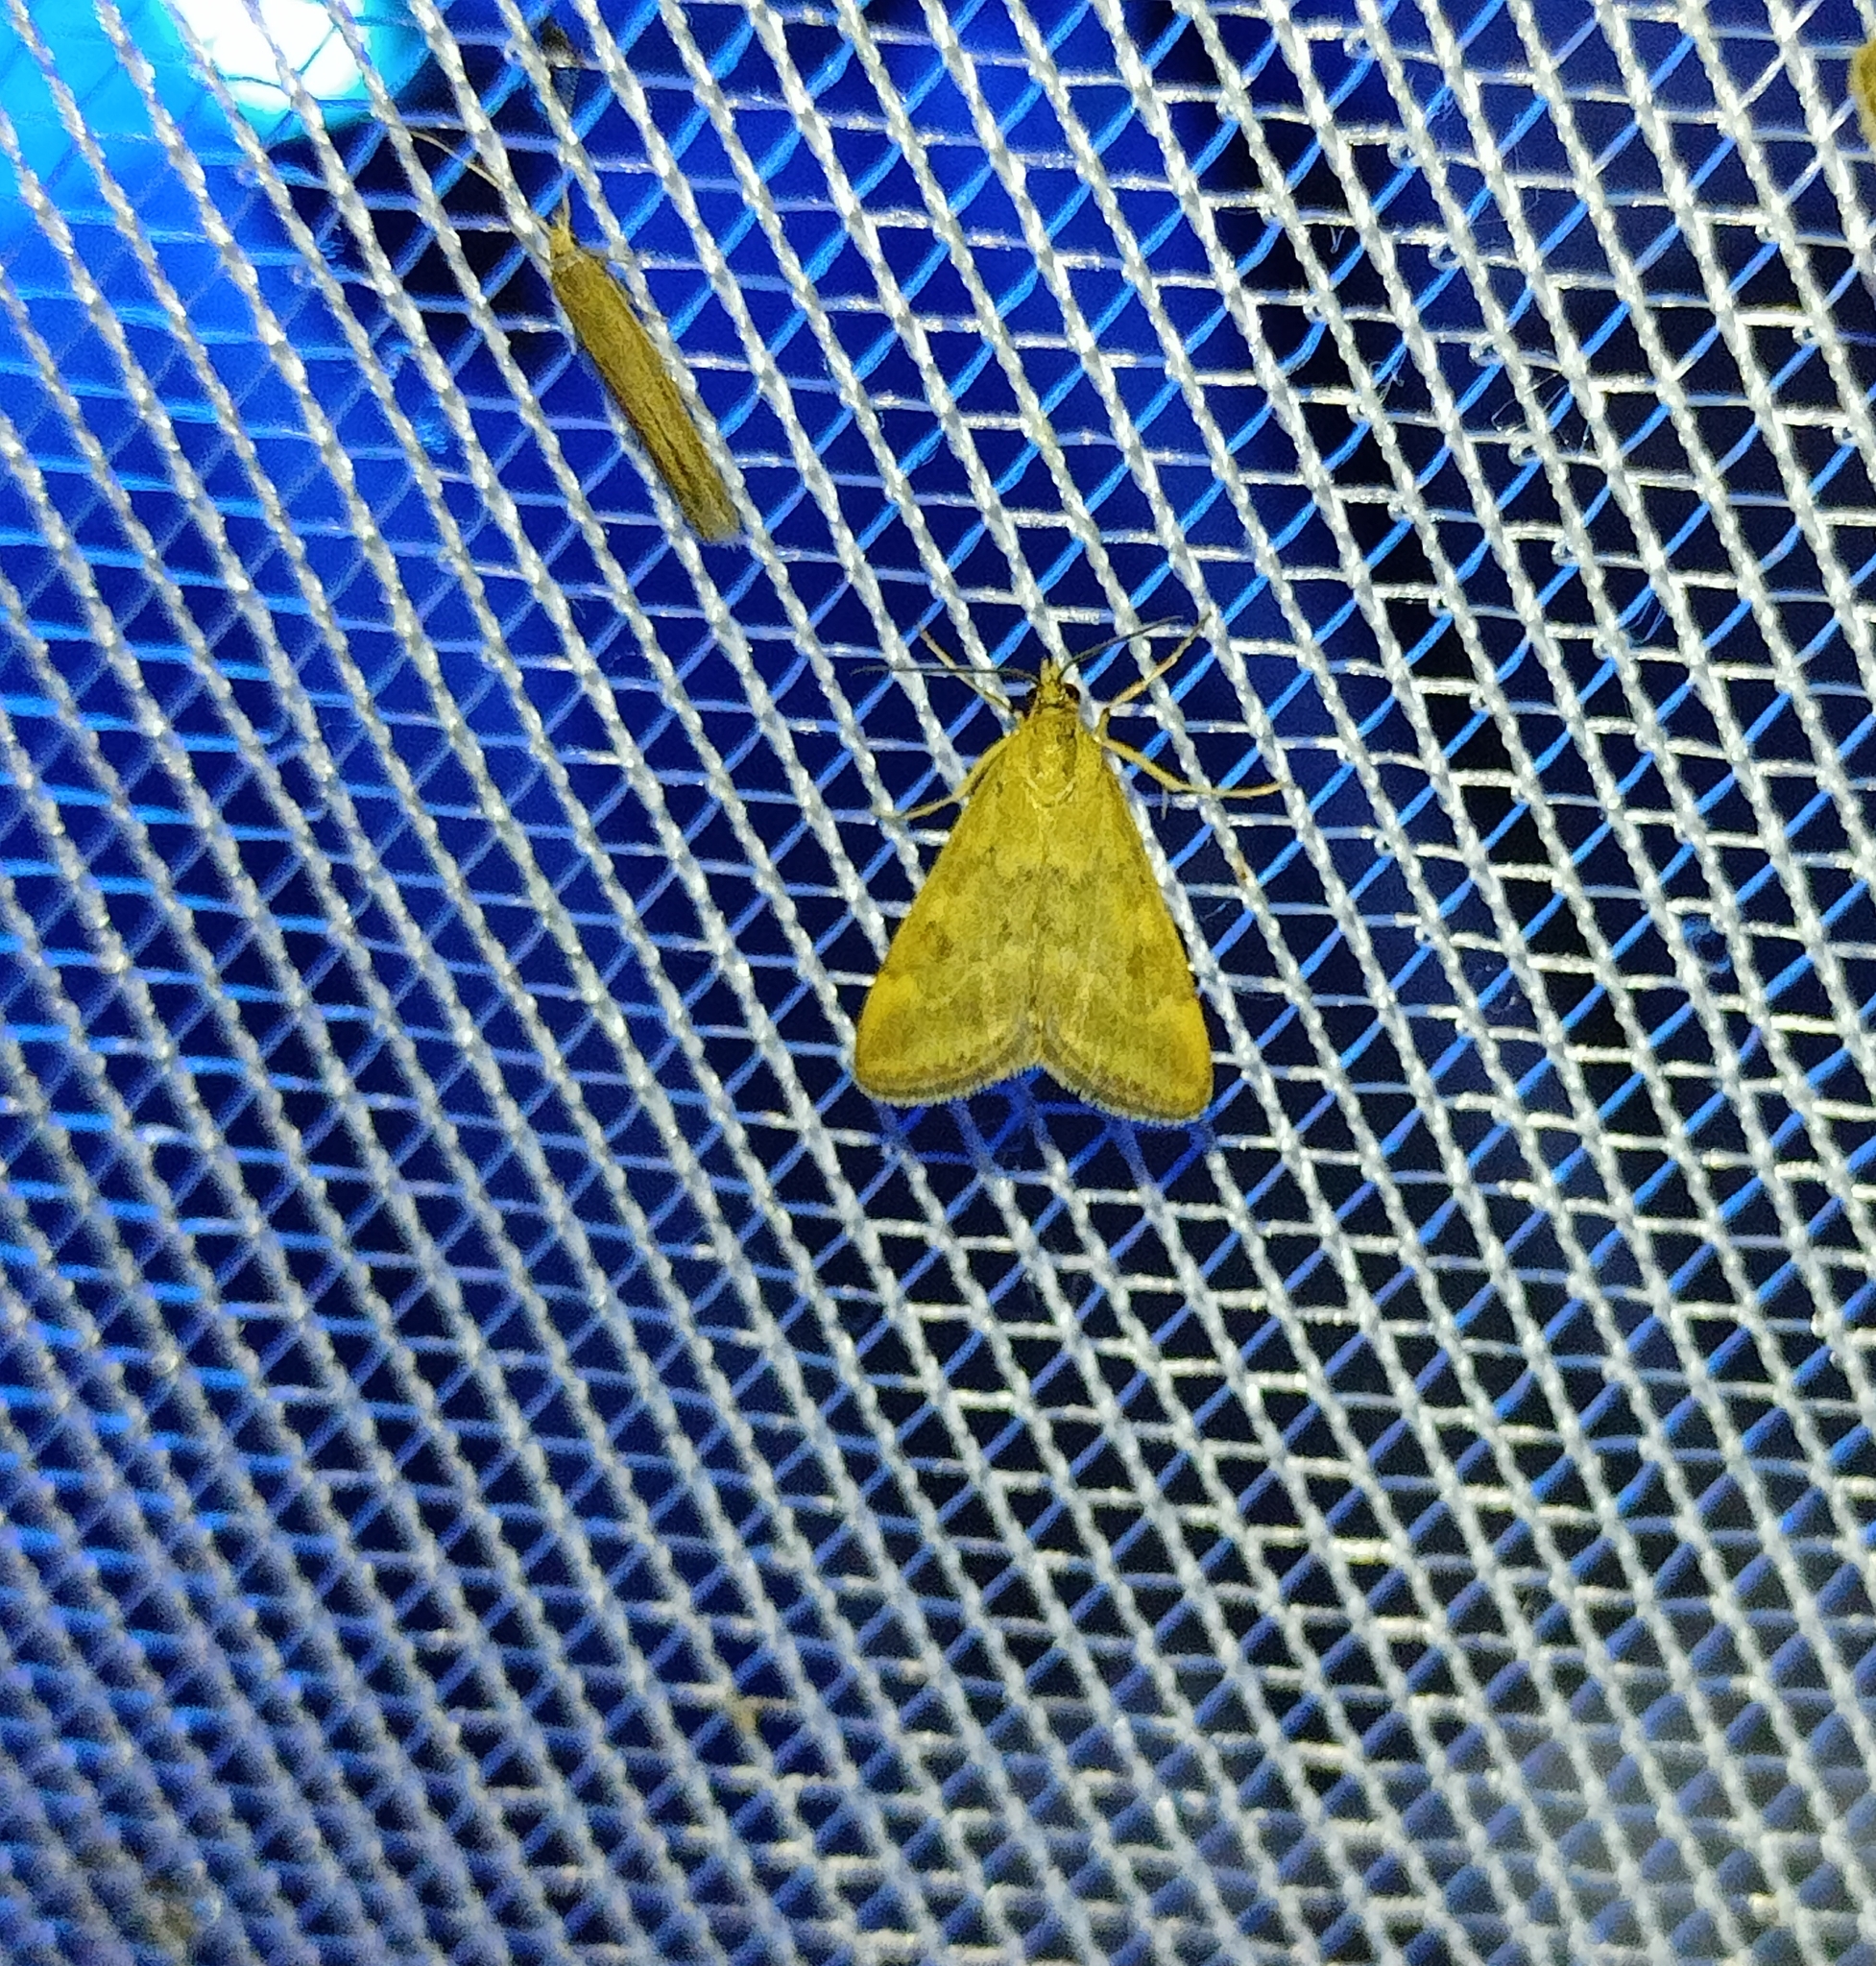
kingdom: Animalia
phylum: Arthropoda
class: Insecta
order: Lepidoptera
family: Crambidae
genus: Pyrausta
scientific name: Pyrausta despicata
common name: Straw-barred pearl
